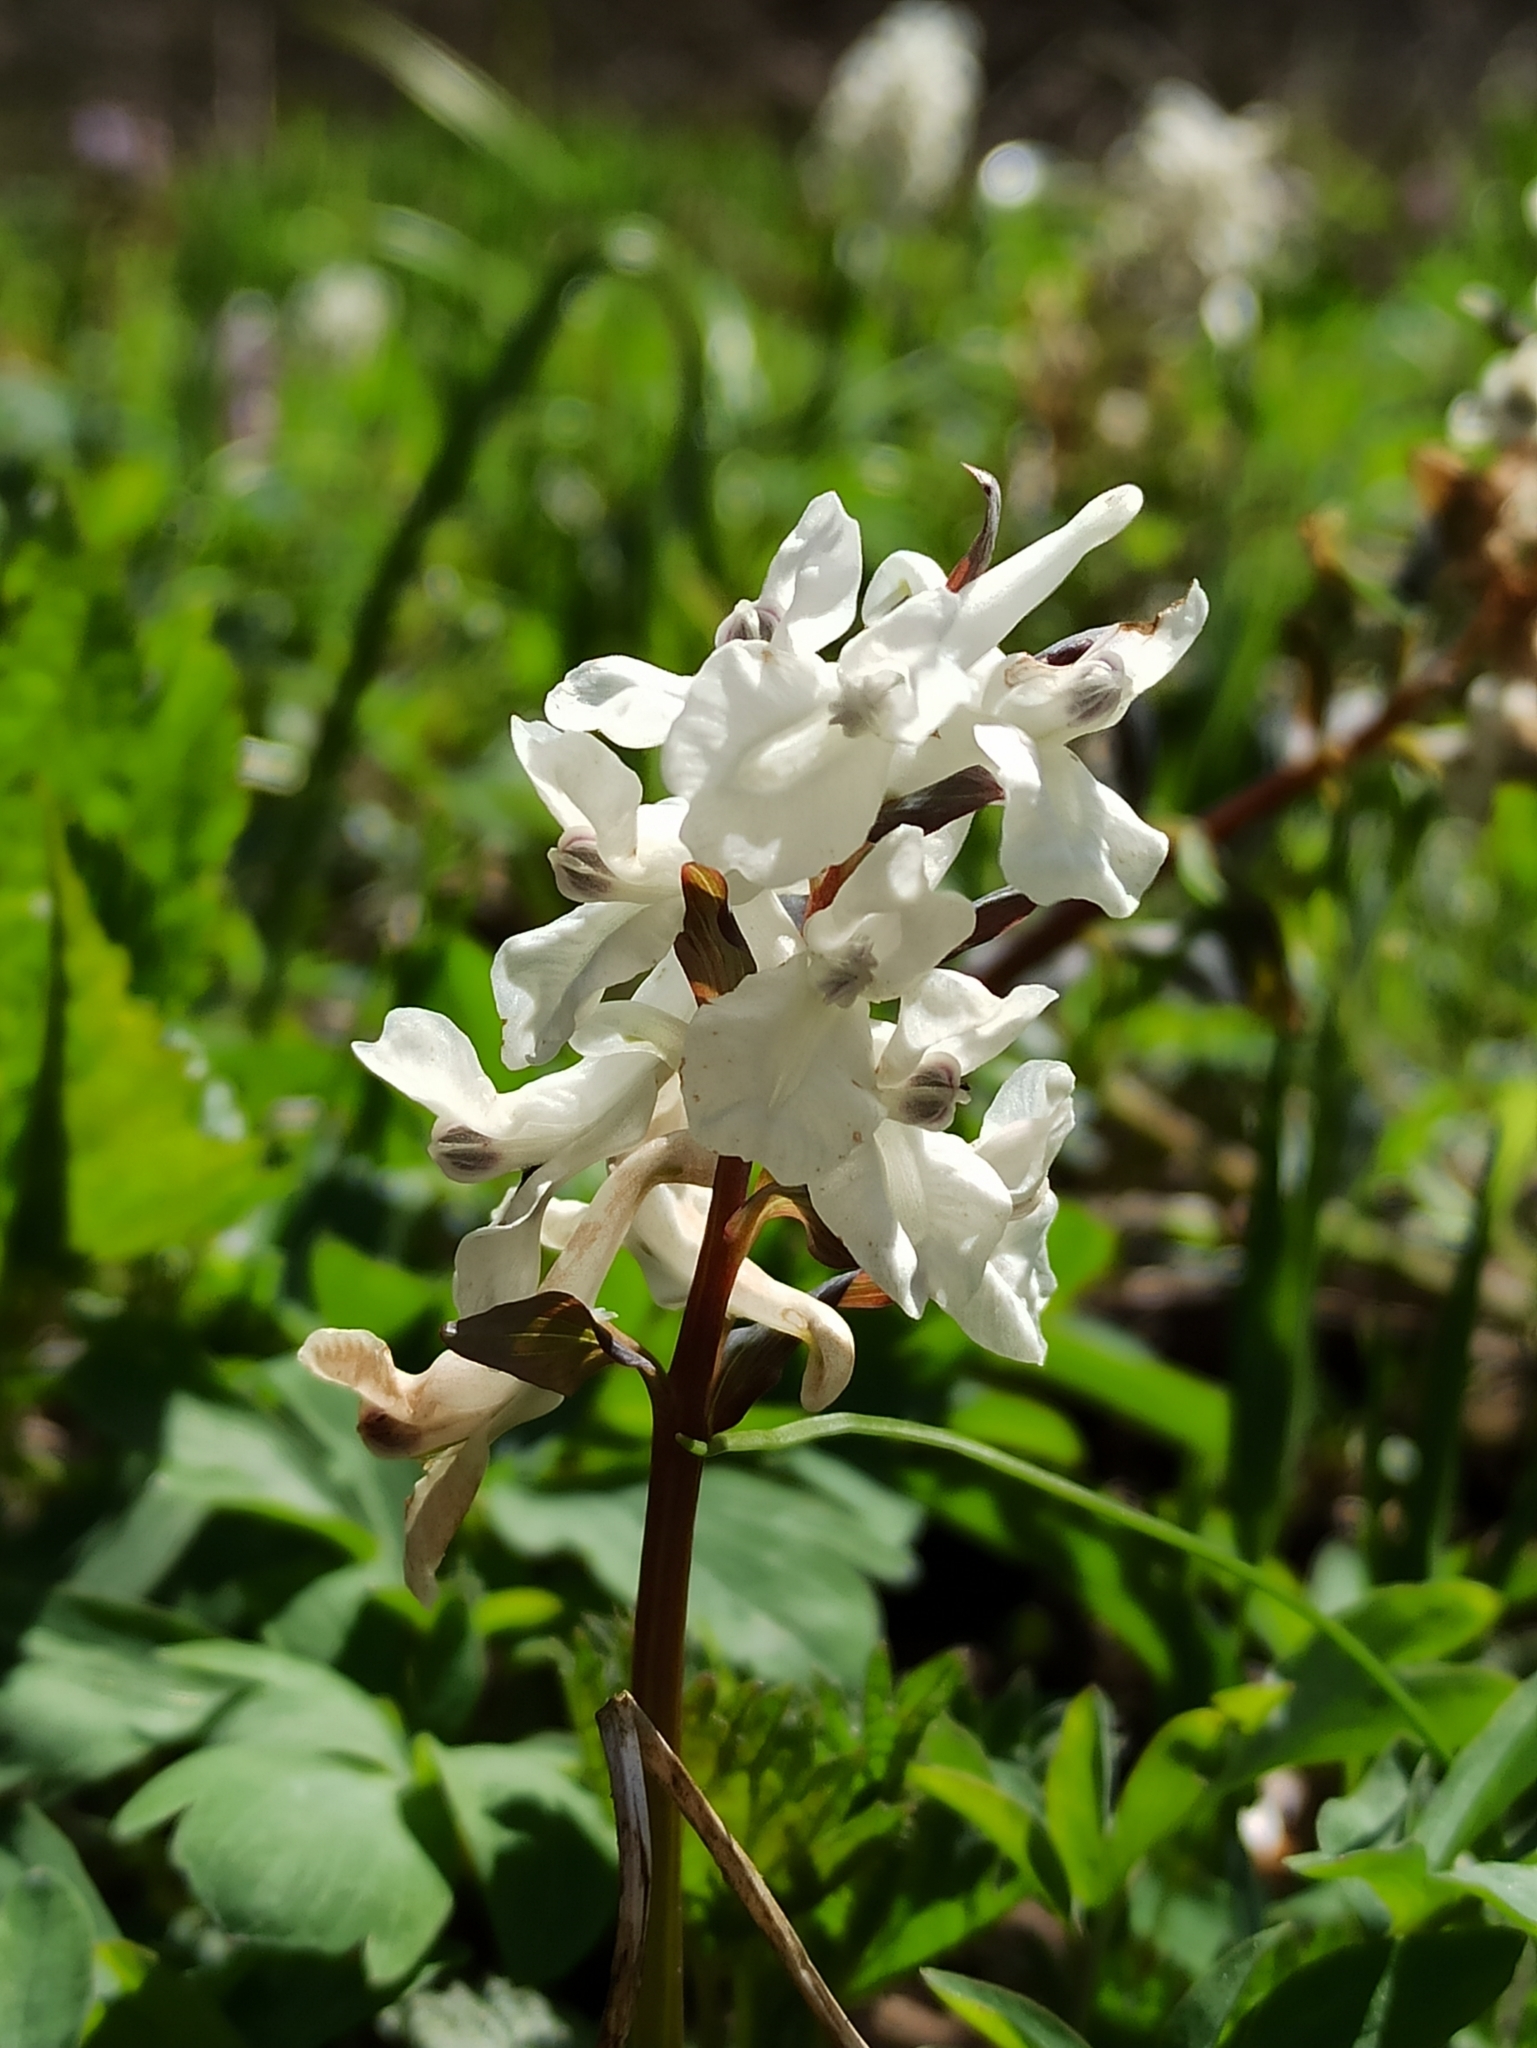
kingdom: Plantae
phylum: Tracheophyta
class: Magnoliopsida
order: Ranunculales
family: Papaveraceae
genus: Corydalis
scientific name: Corydalis cava
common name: Hollowroot
